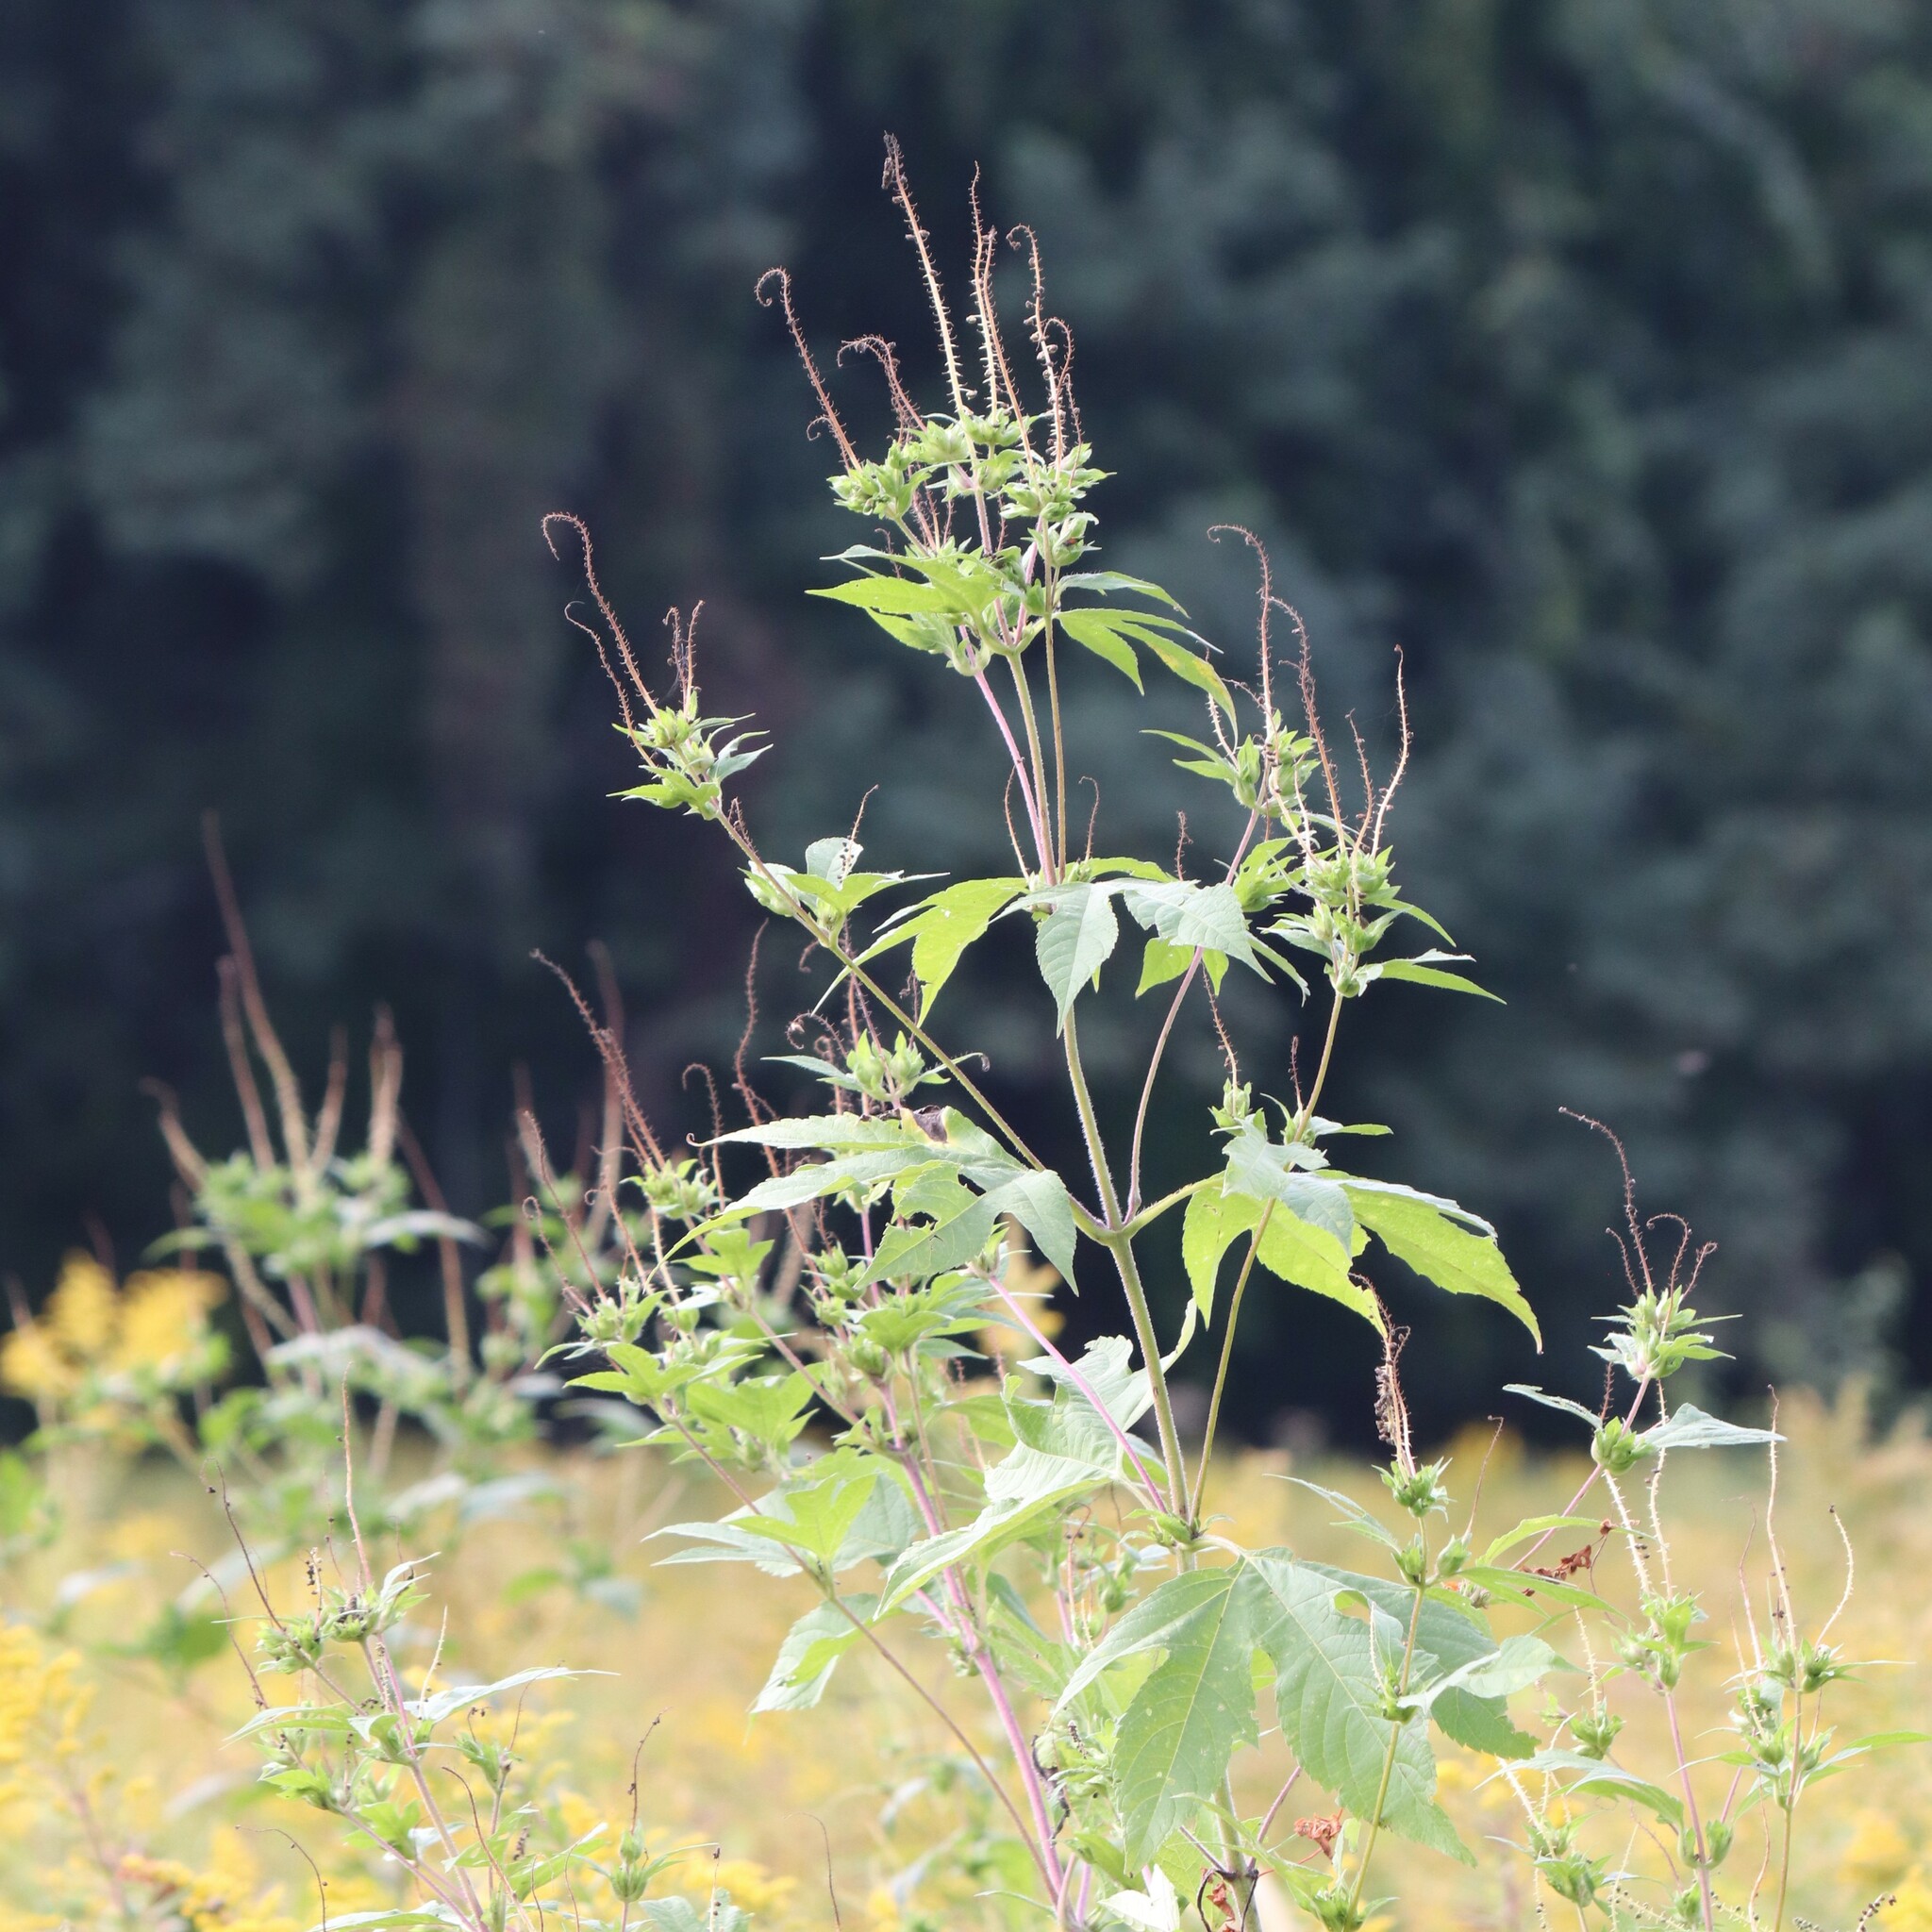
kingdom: Plantae
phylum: Tracheophyta
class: Magnoliopsida
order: Asterales
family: Asteraceae
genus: Ambrosia
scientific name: Ambrosia trifida
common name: Giant ragweed
